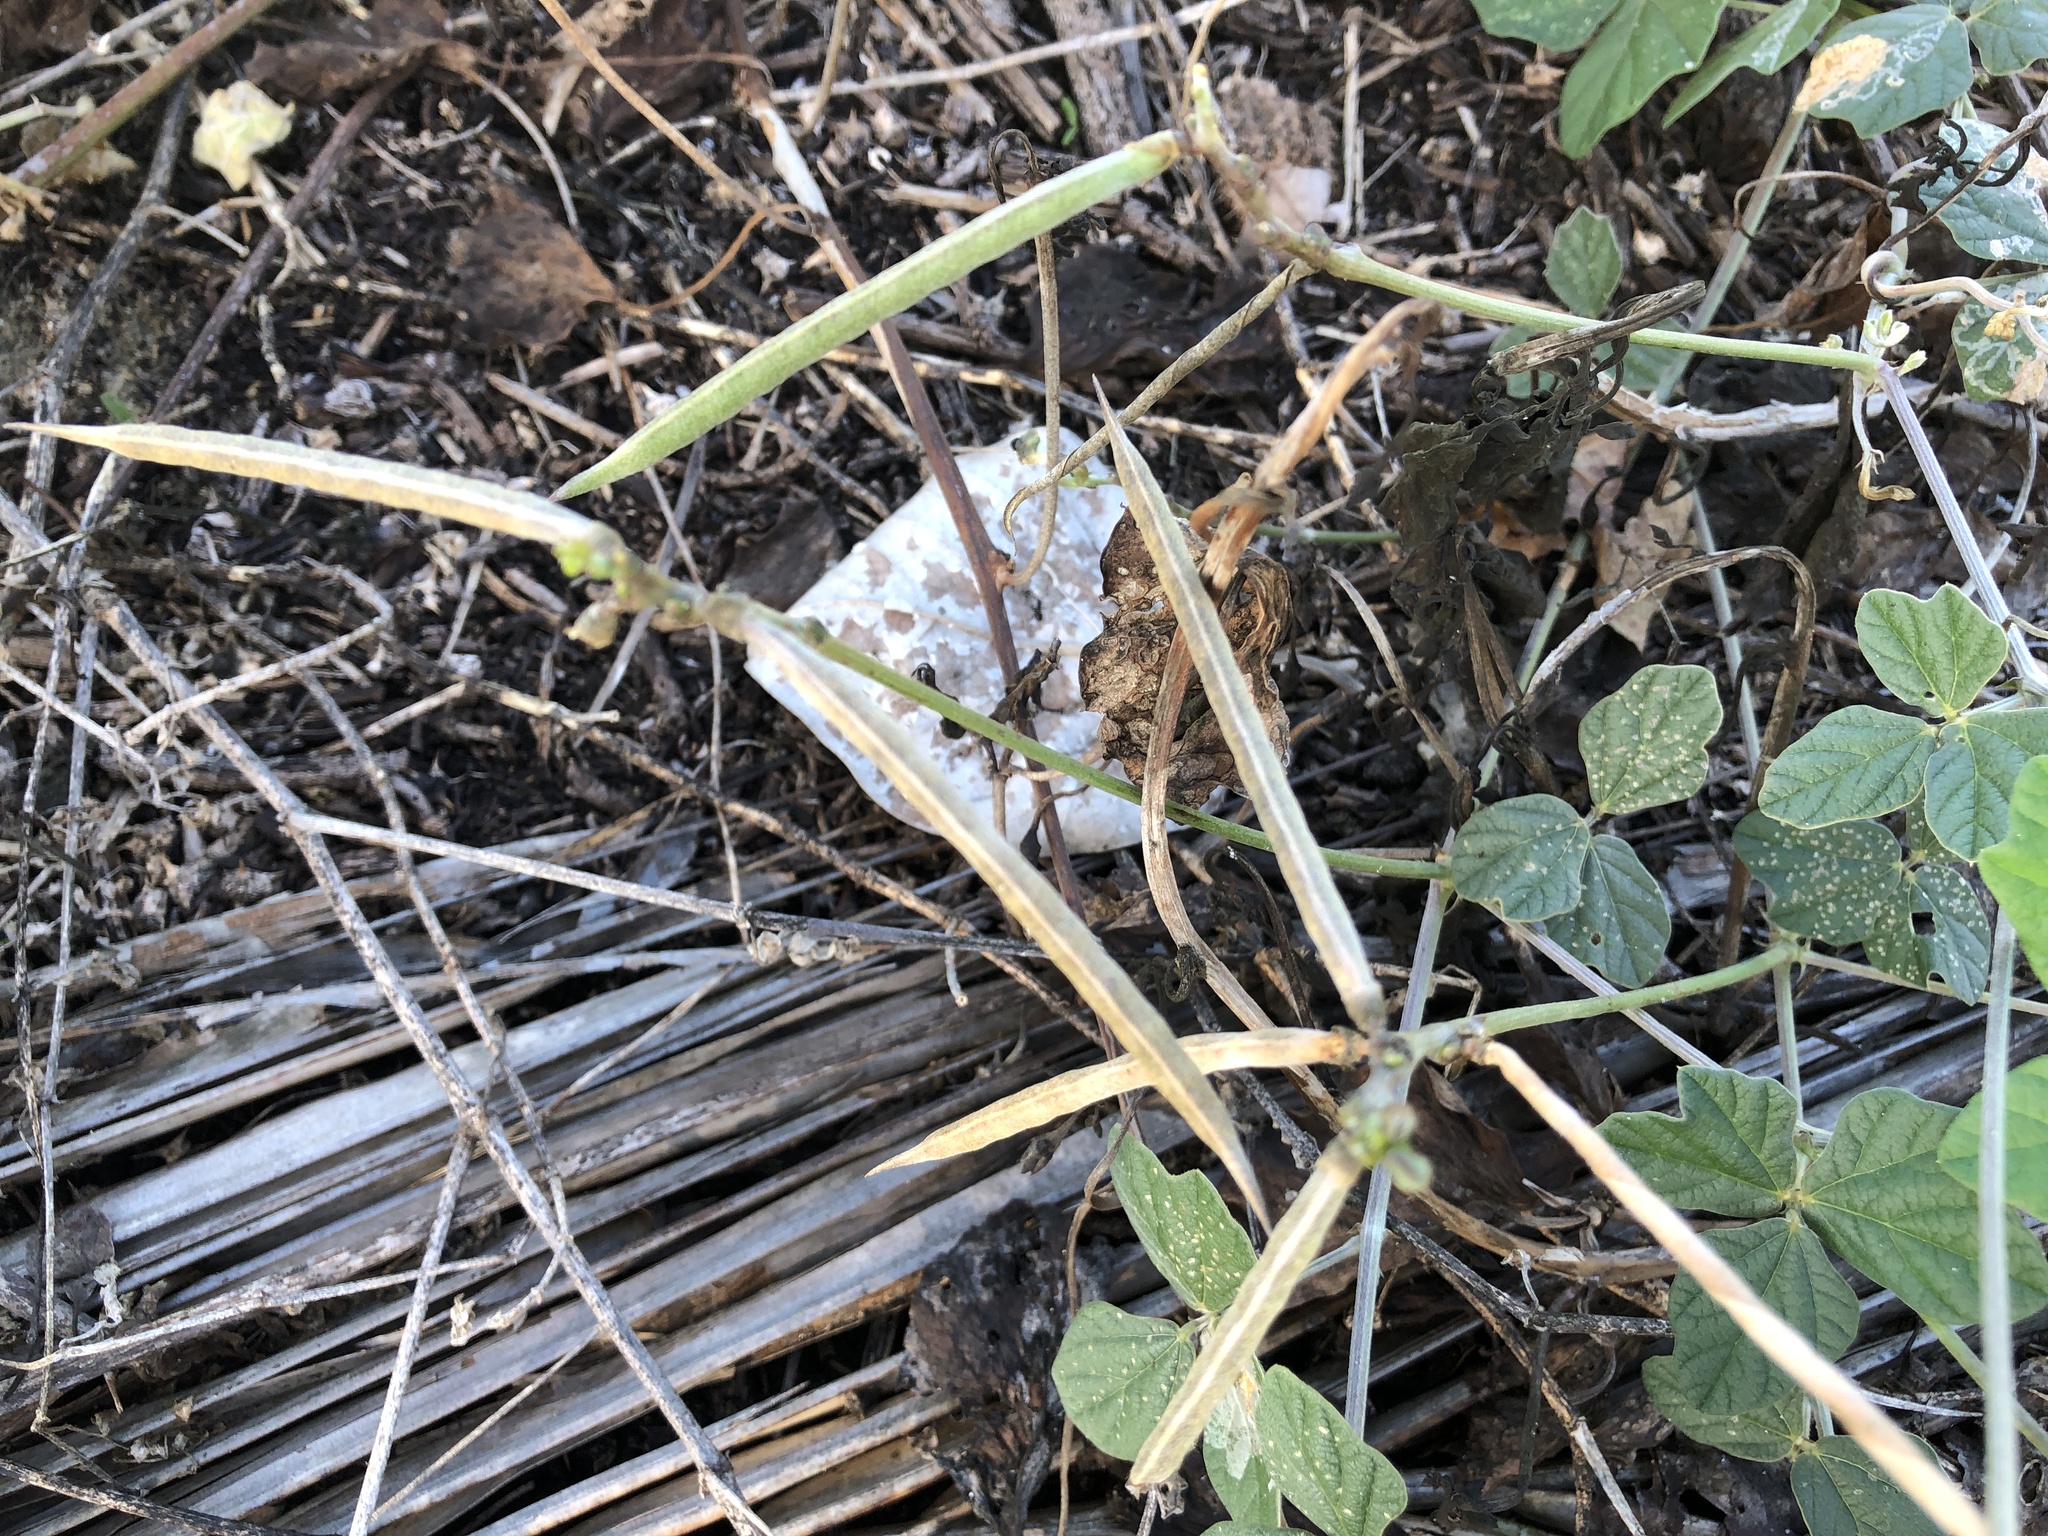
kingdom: Plantae
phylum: Tracheophyta
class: Magnoliopsida
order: Fabales
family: Fabaceae
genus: Macroptilium
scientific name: Macroptilium atropurpureum
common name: Purple bushbean
